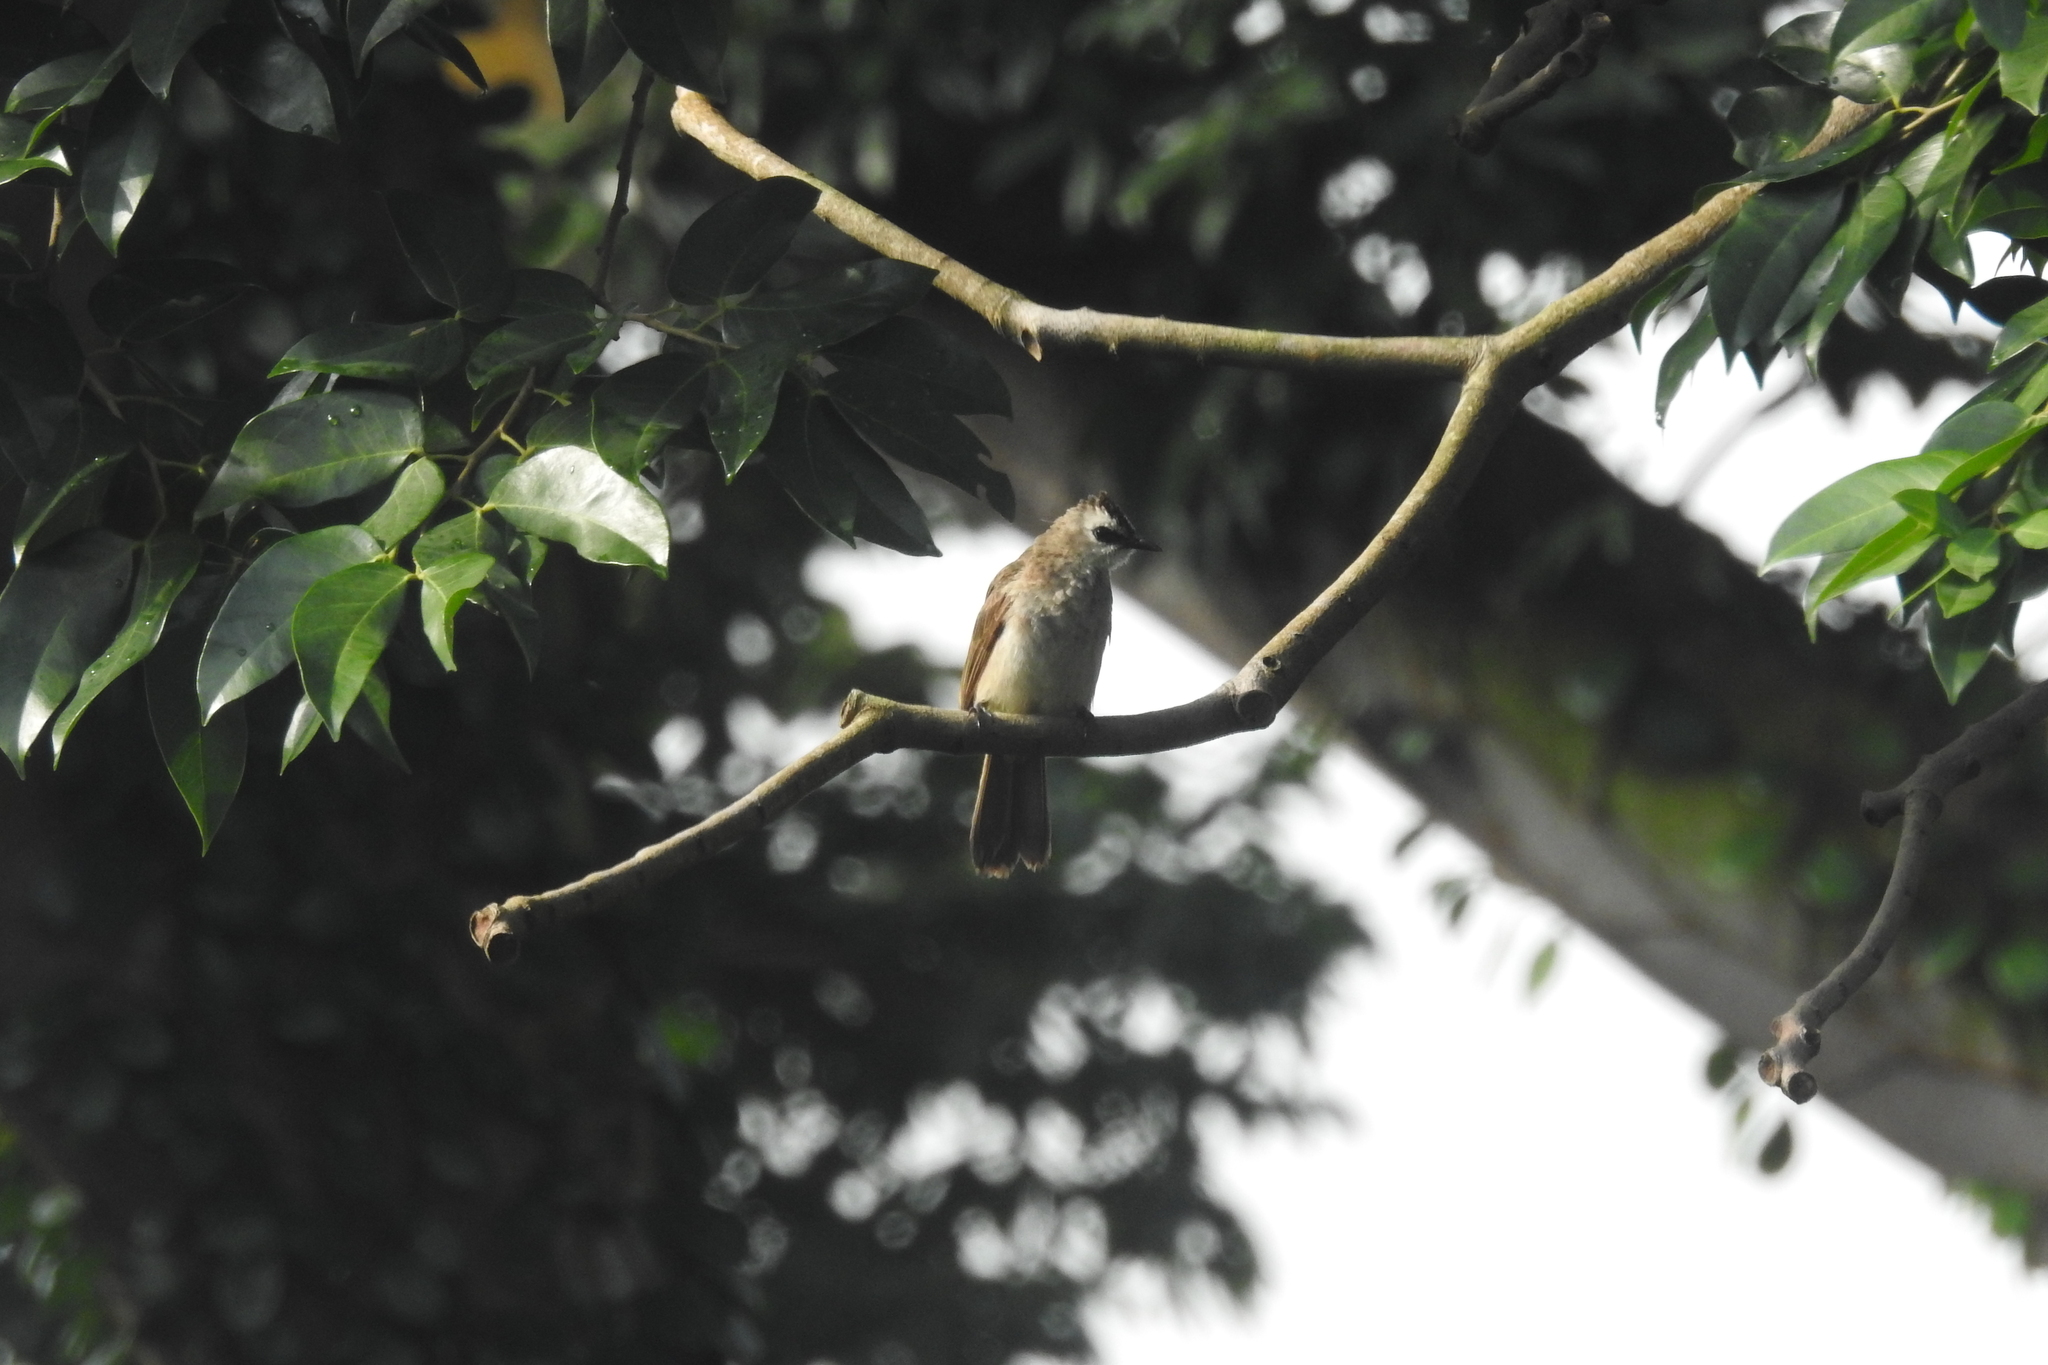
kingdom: Animalia
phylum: Chordata
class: Aves
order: Passeriformes
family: Pycnonotidae
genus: Pycnonotus
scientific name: Pycnonotus goiavier
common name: Yellow-vented bulbul
